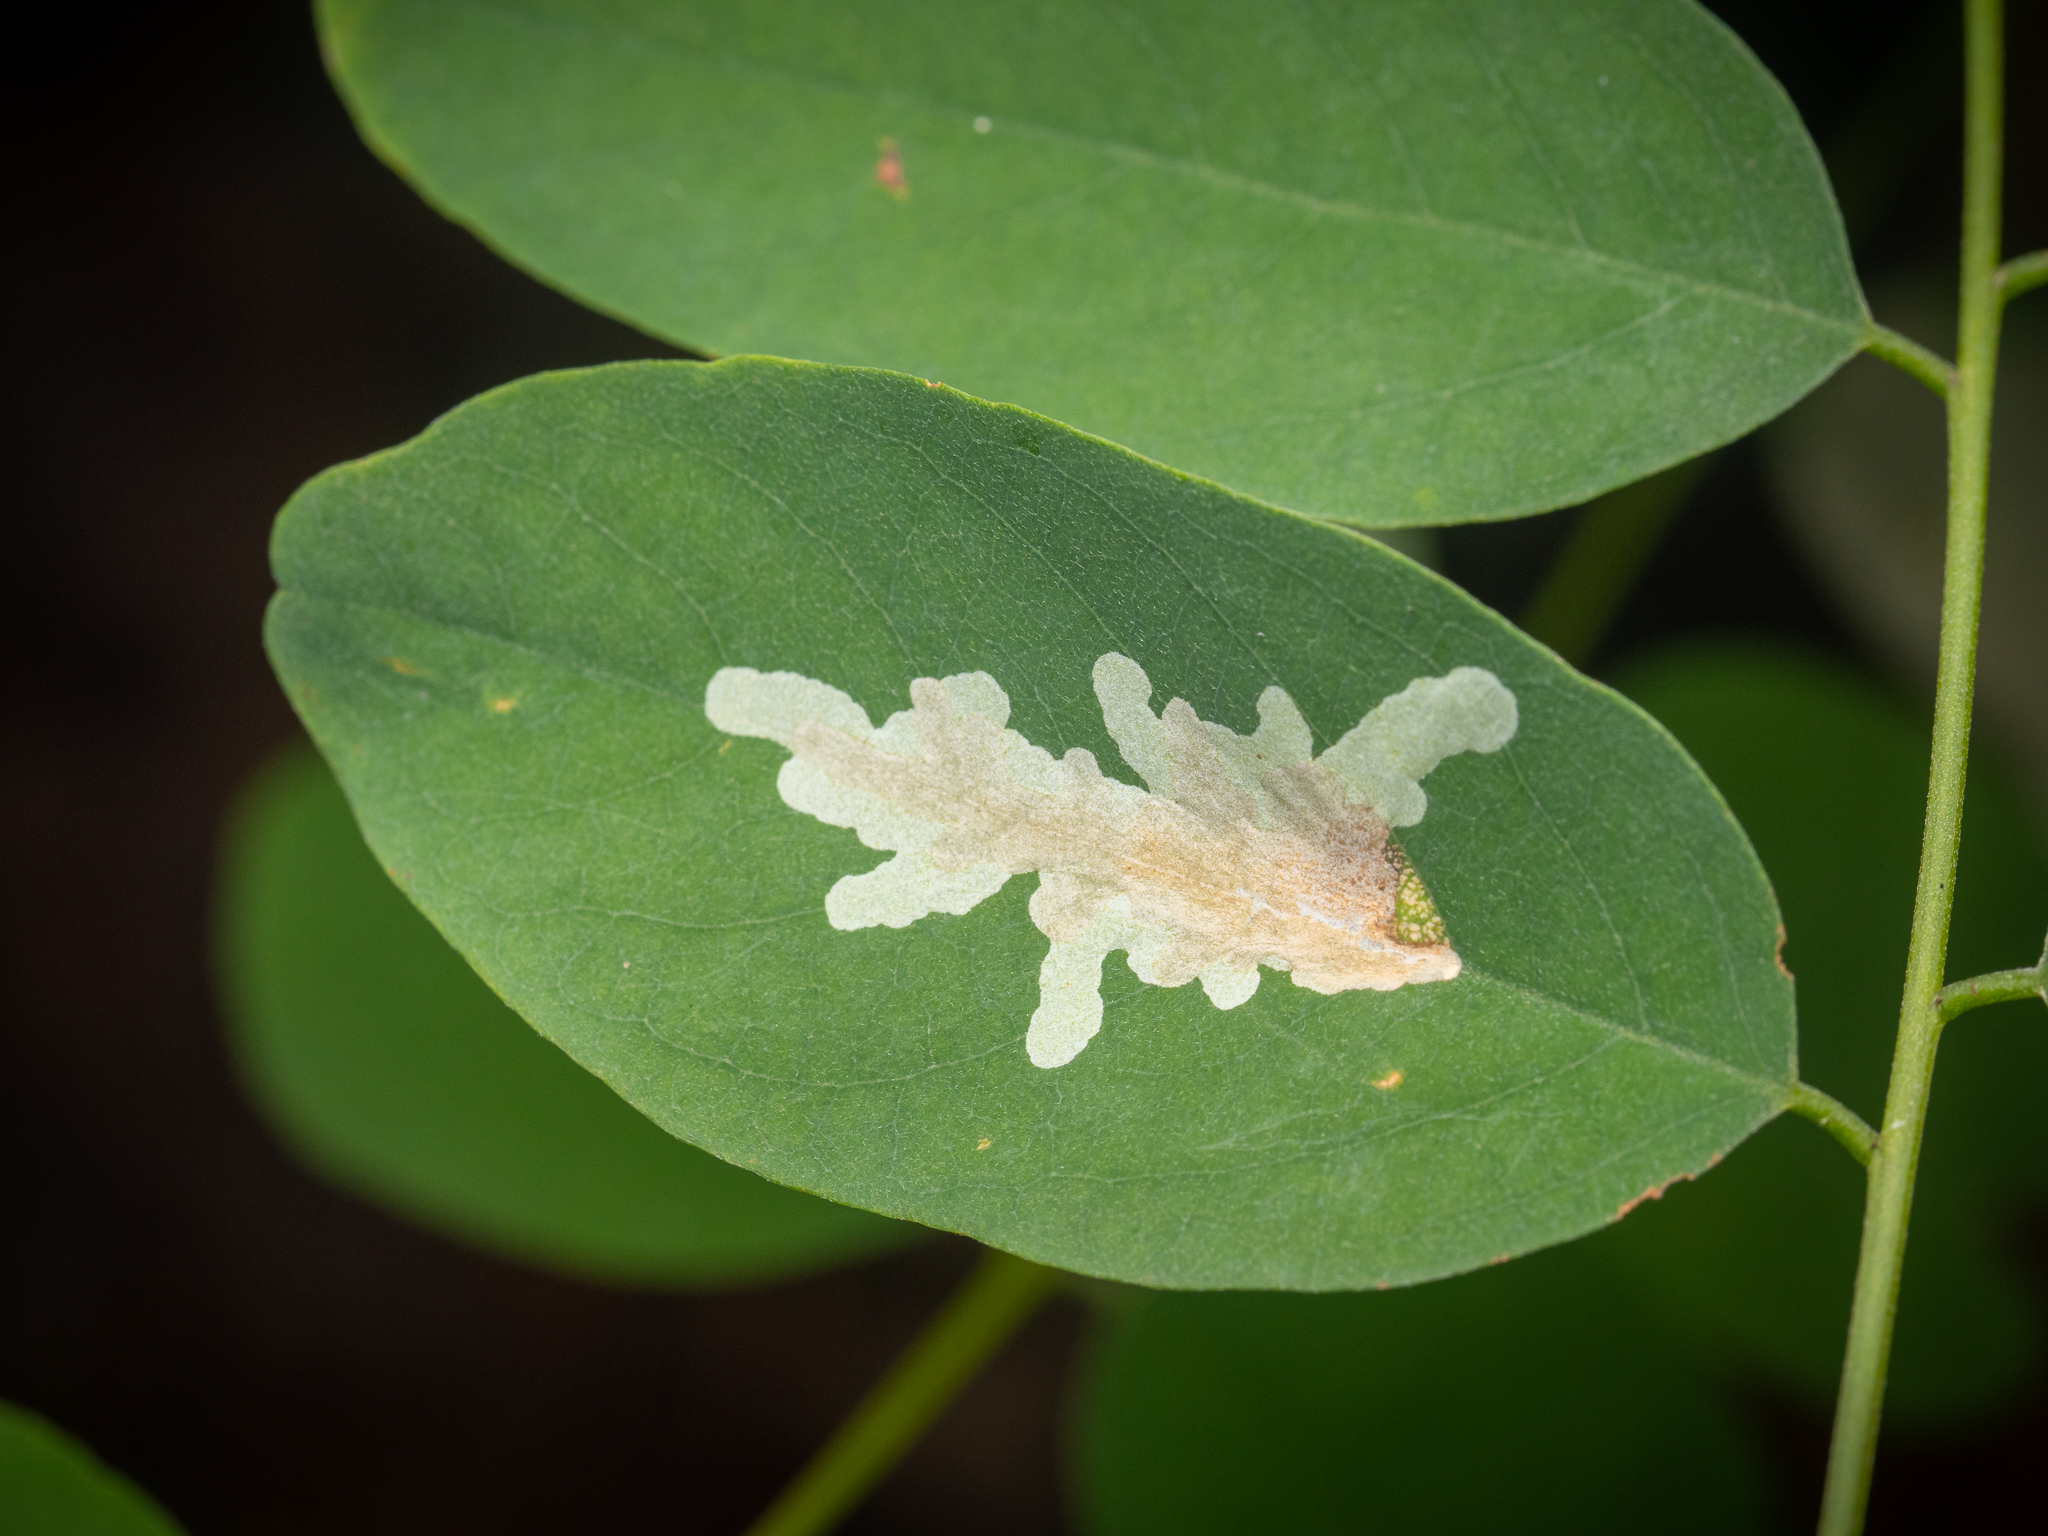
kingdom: Animalia
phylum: Arthropoda
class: Insecta
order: Lepidoptera
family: Gracillariidae
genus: Parectopa
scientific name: Parectopa robiniella
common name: Locust digitate leafminer
